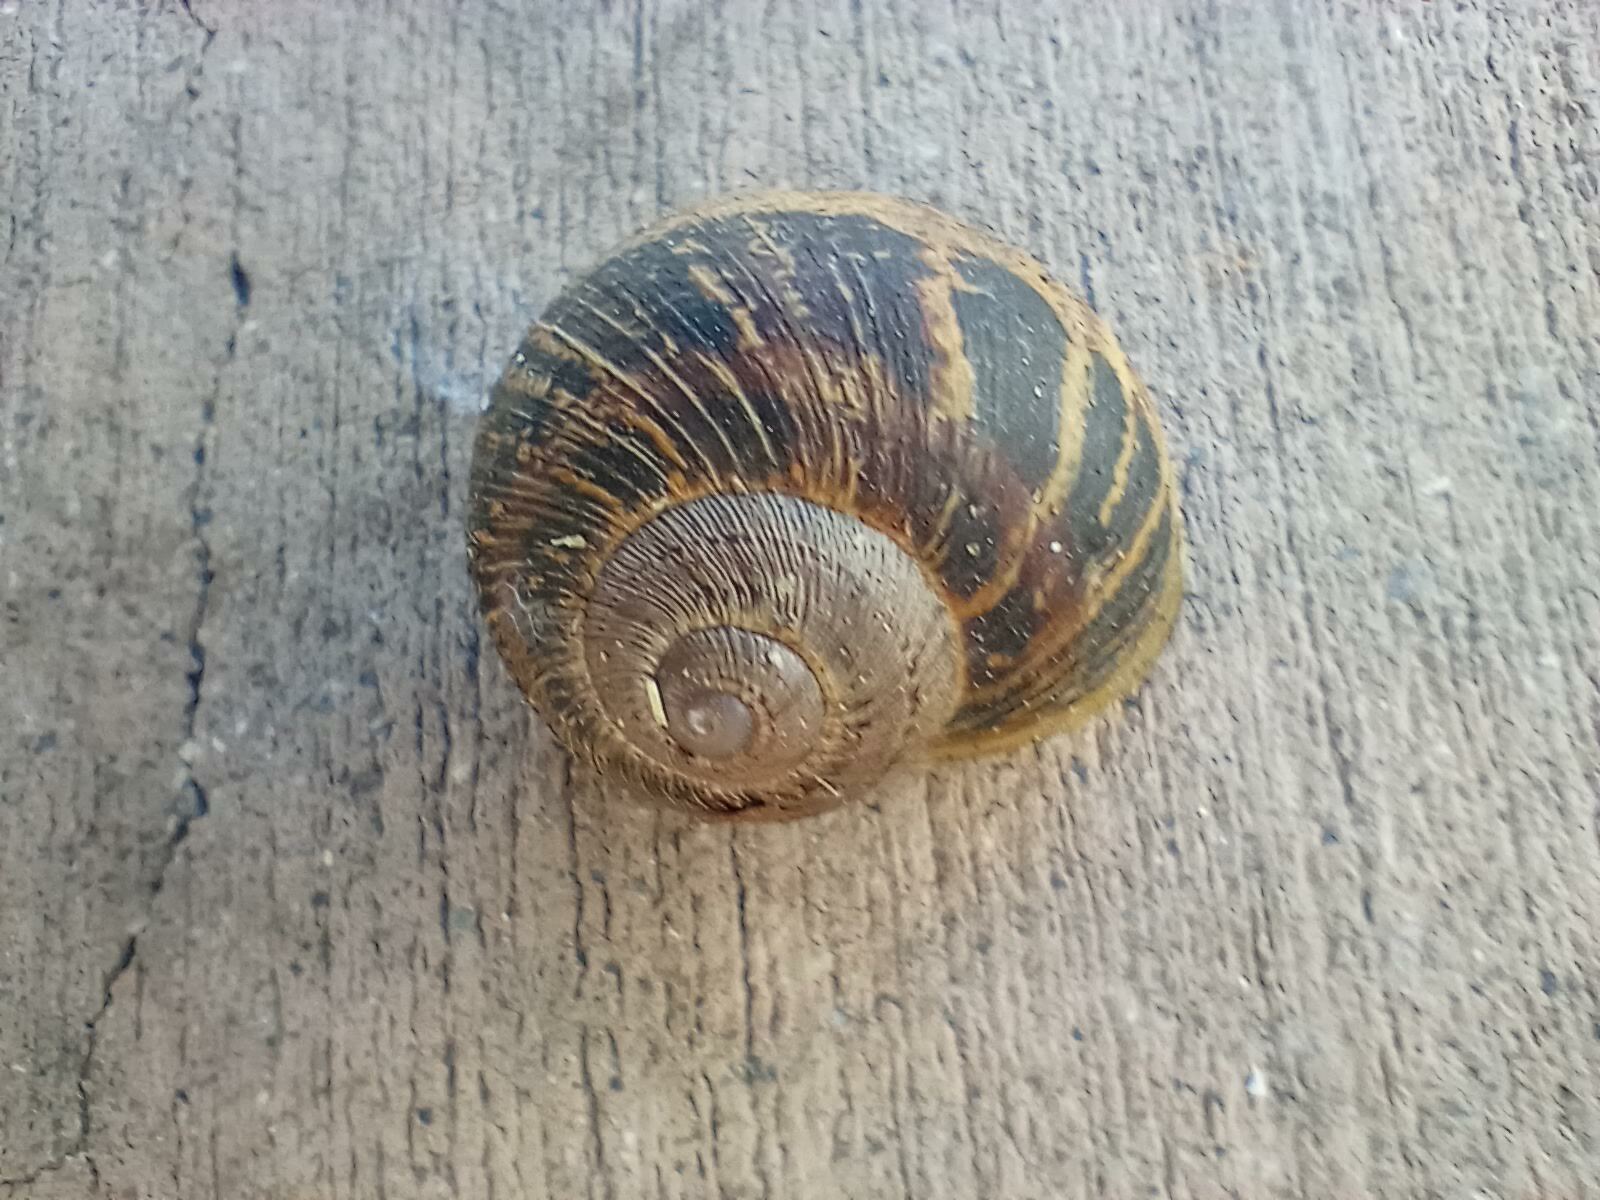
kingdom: Animalia
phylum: Mollusca
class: Gastropoda
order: Stylommatophora
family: Helicidae
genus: Cornu
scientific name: Cornu aspersum
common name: Brown garden snail
